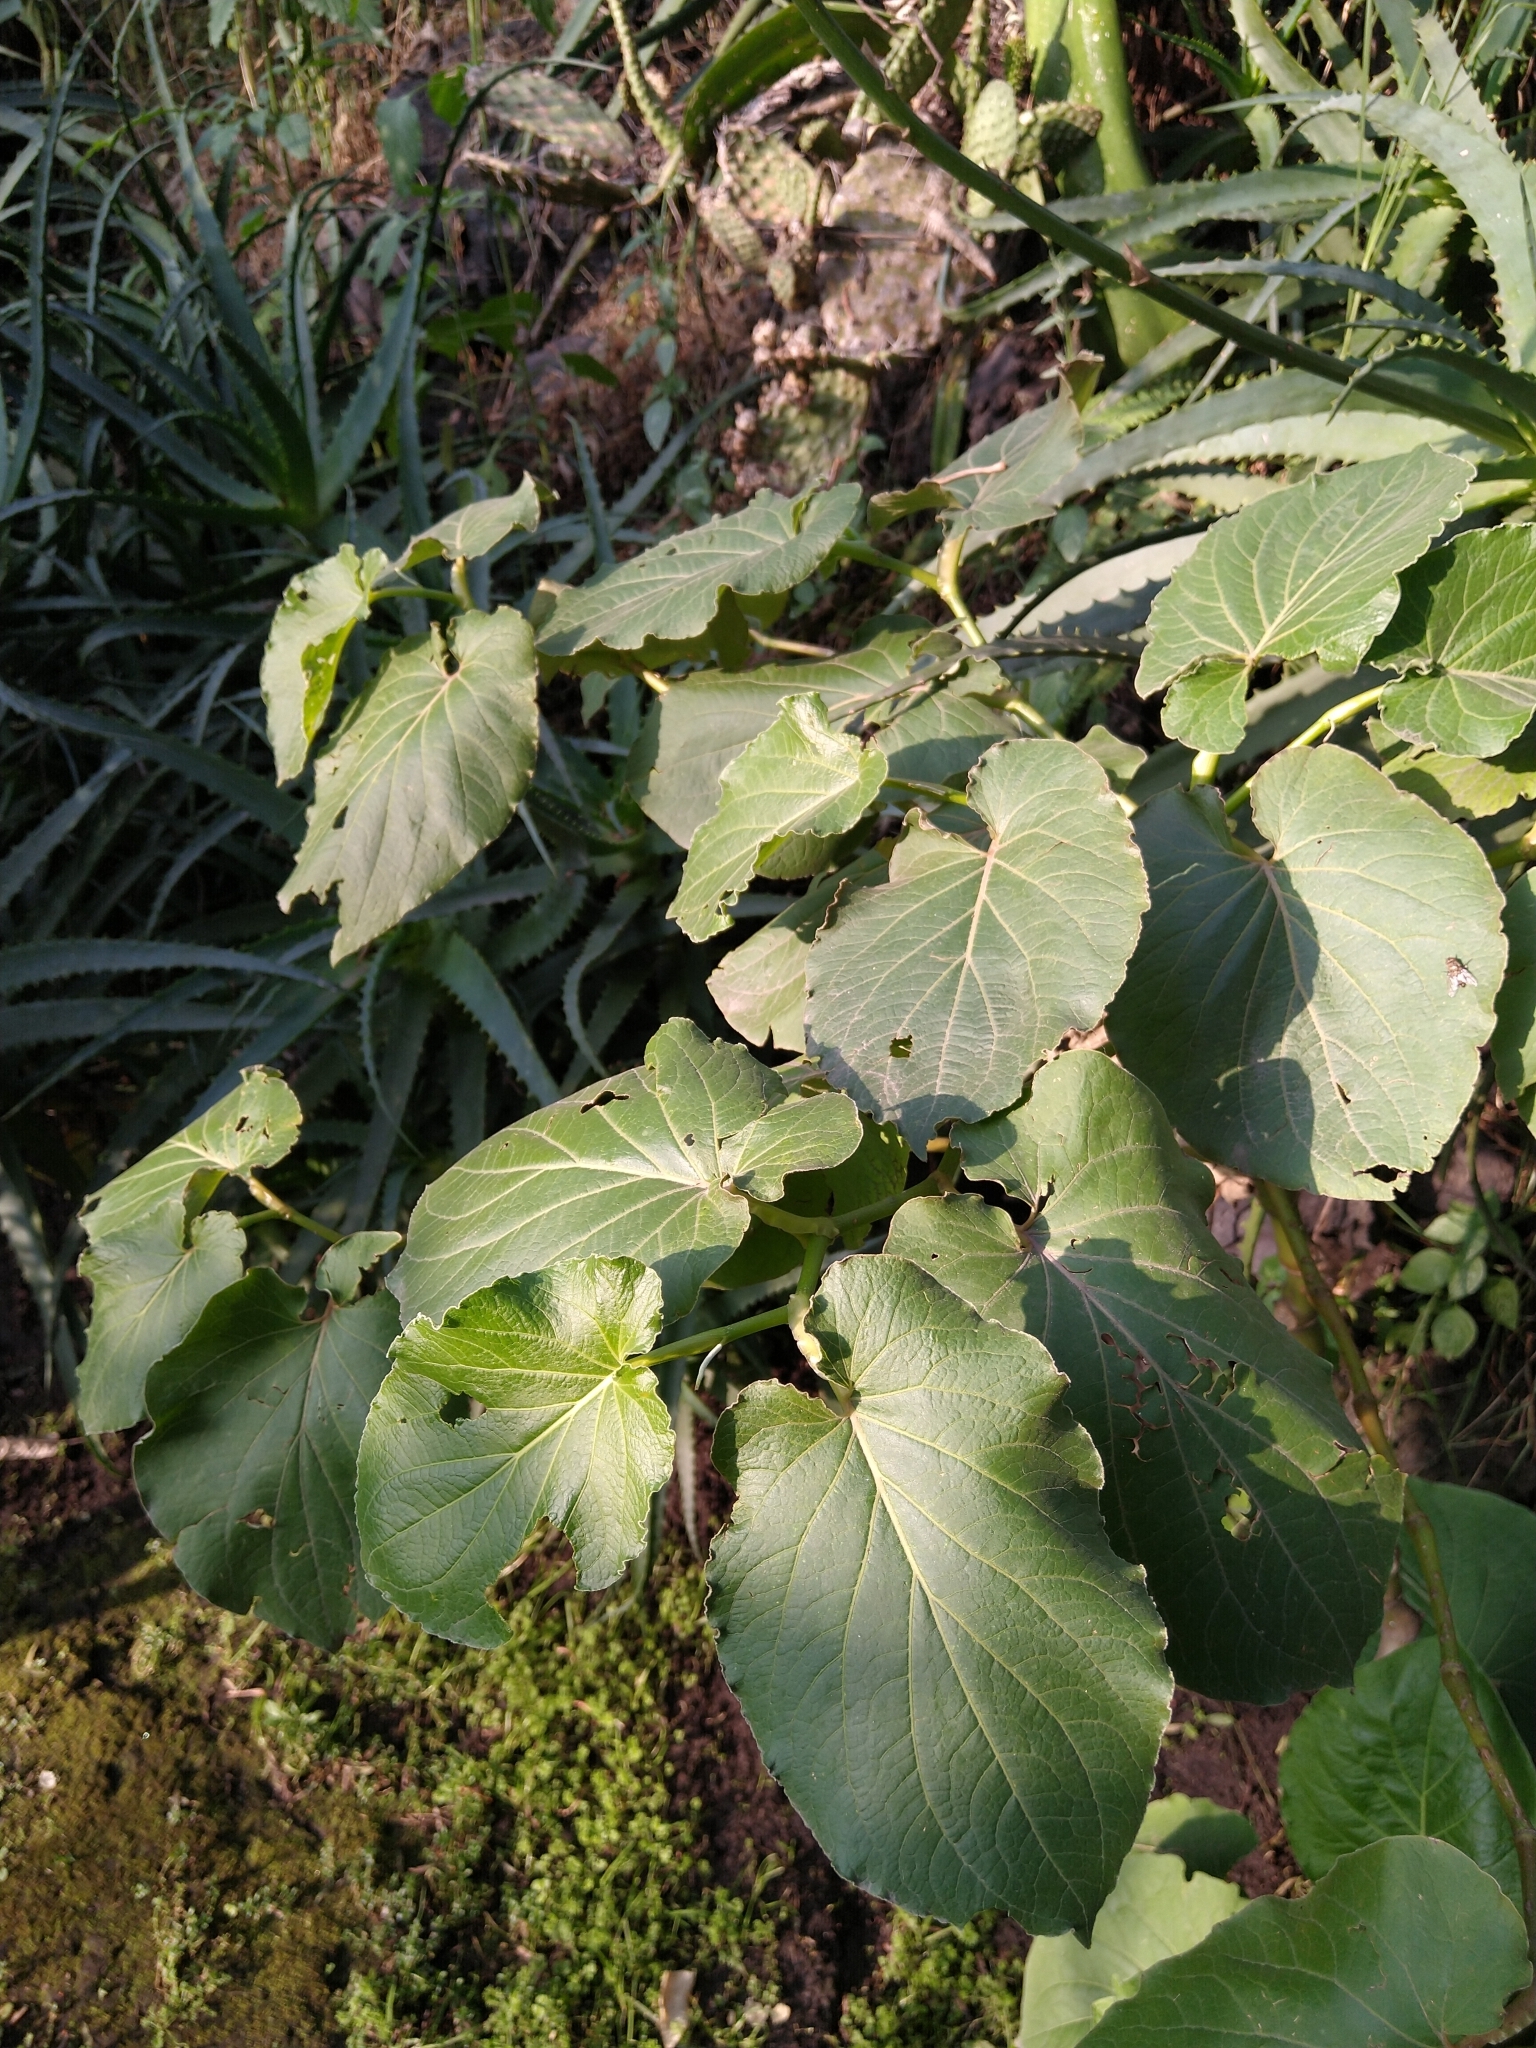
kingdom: Plantae
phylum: Tracheophyta
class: Magnoliopsida
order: Piperales
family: Piperaceae
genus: Piper
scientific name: Piper auritum
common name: Vera cruz pepper
